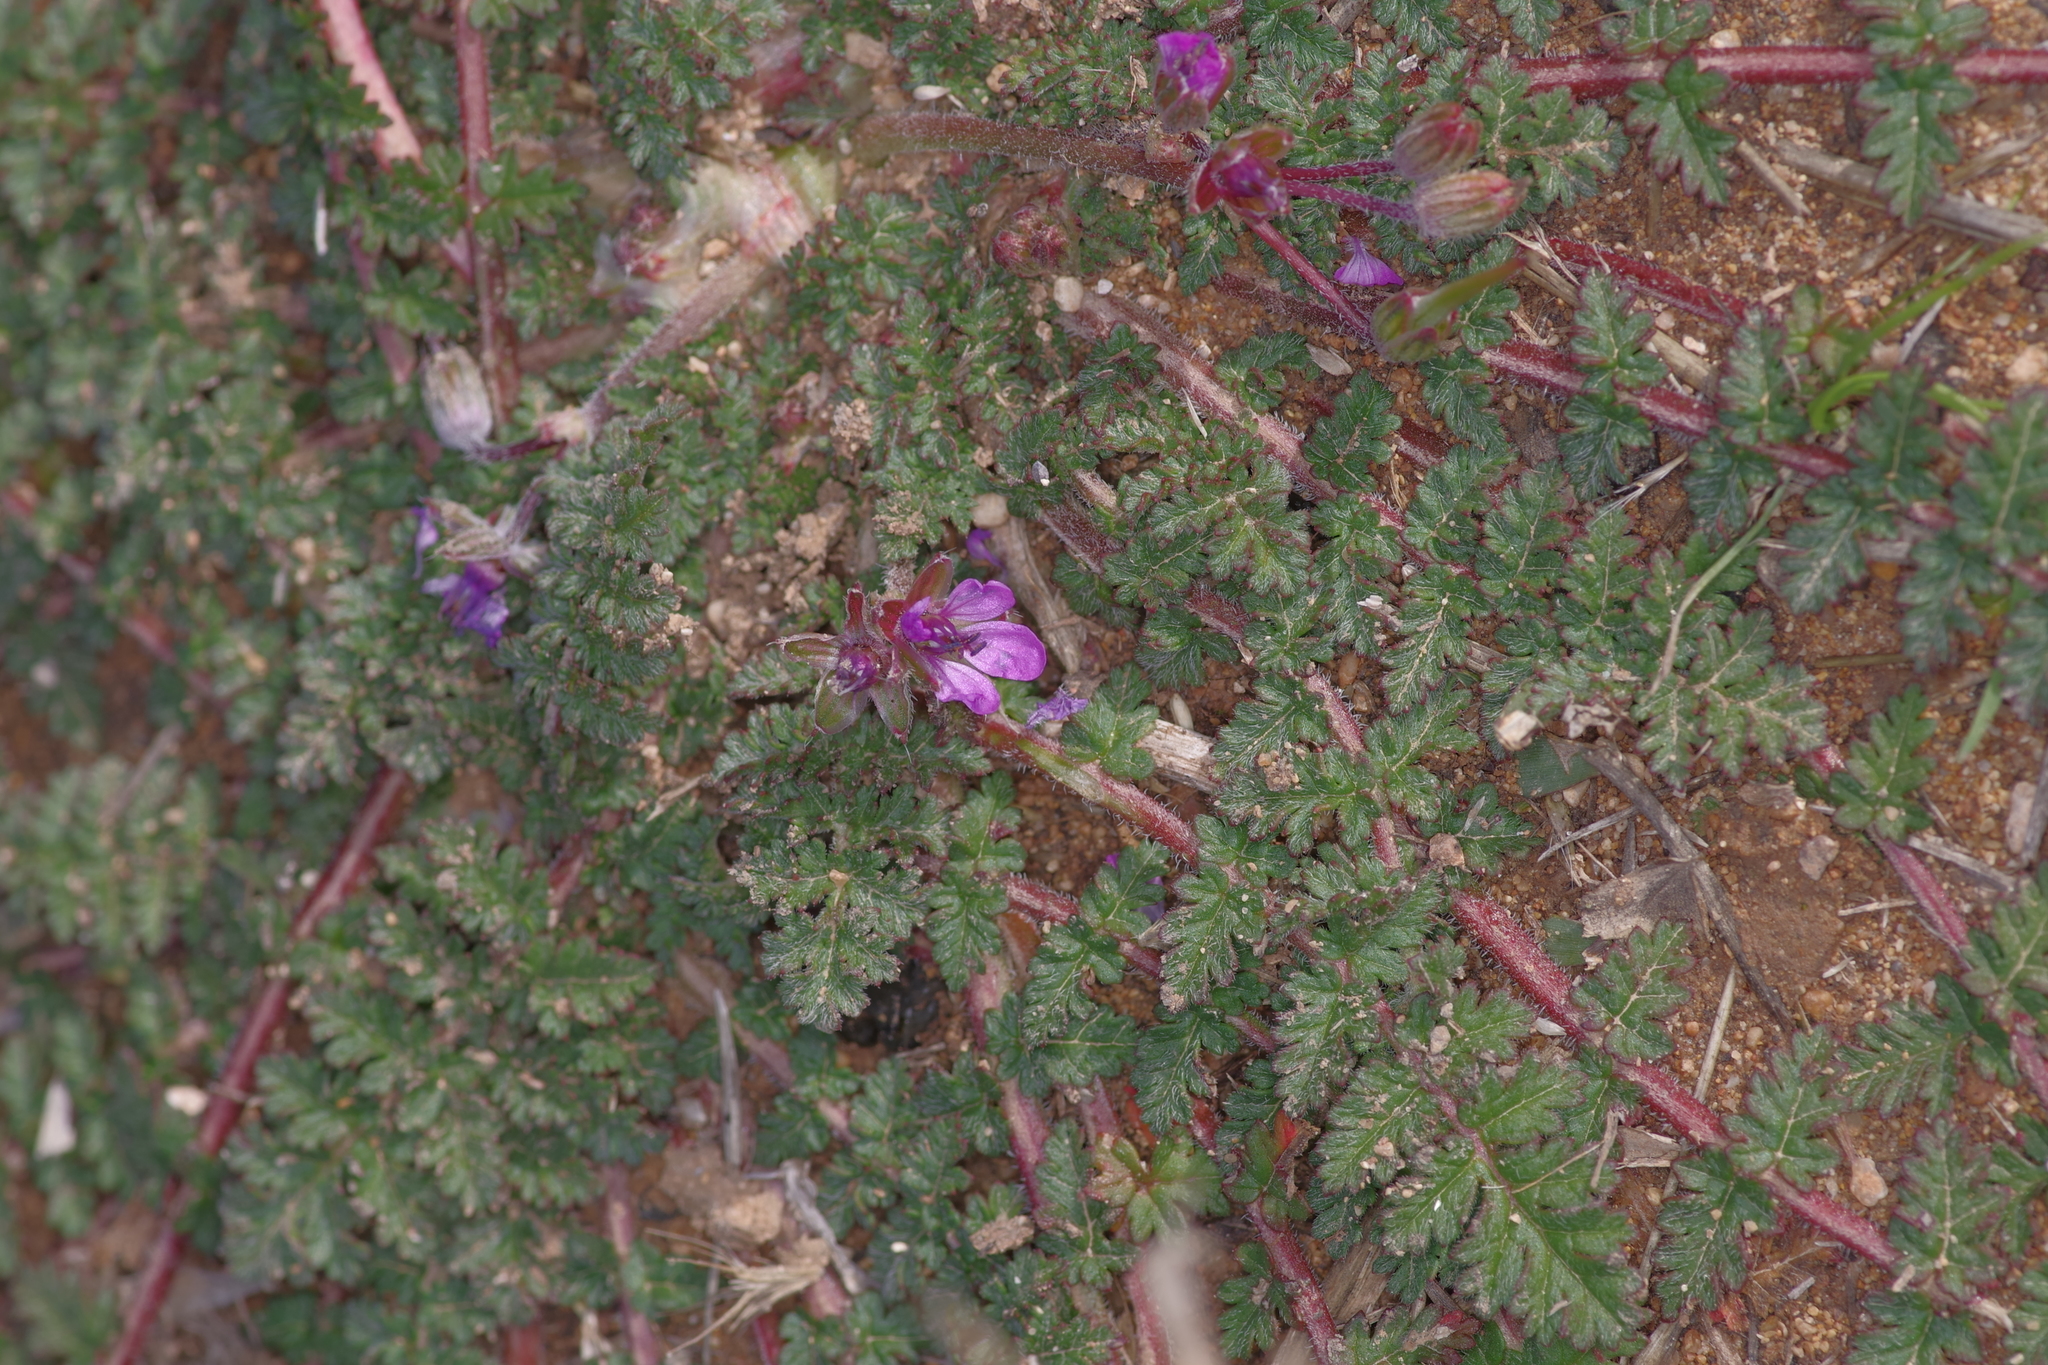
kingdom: Plantae
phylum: Tracheophyta
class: Magnoliopsida
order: Geraniales
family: Geraniaceae
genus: Erodium
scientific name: Erodium cicutarium
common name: Common stork's-bill
